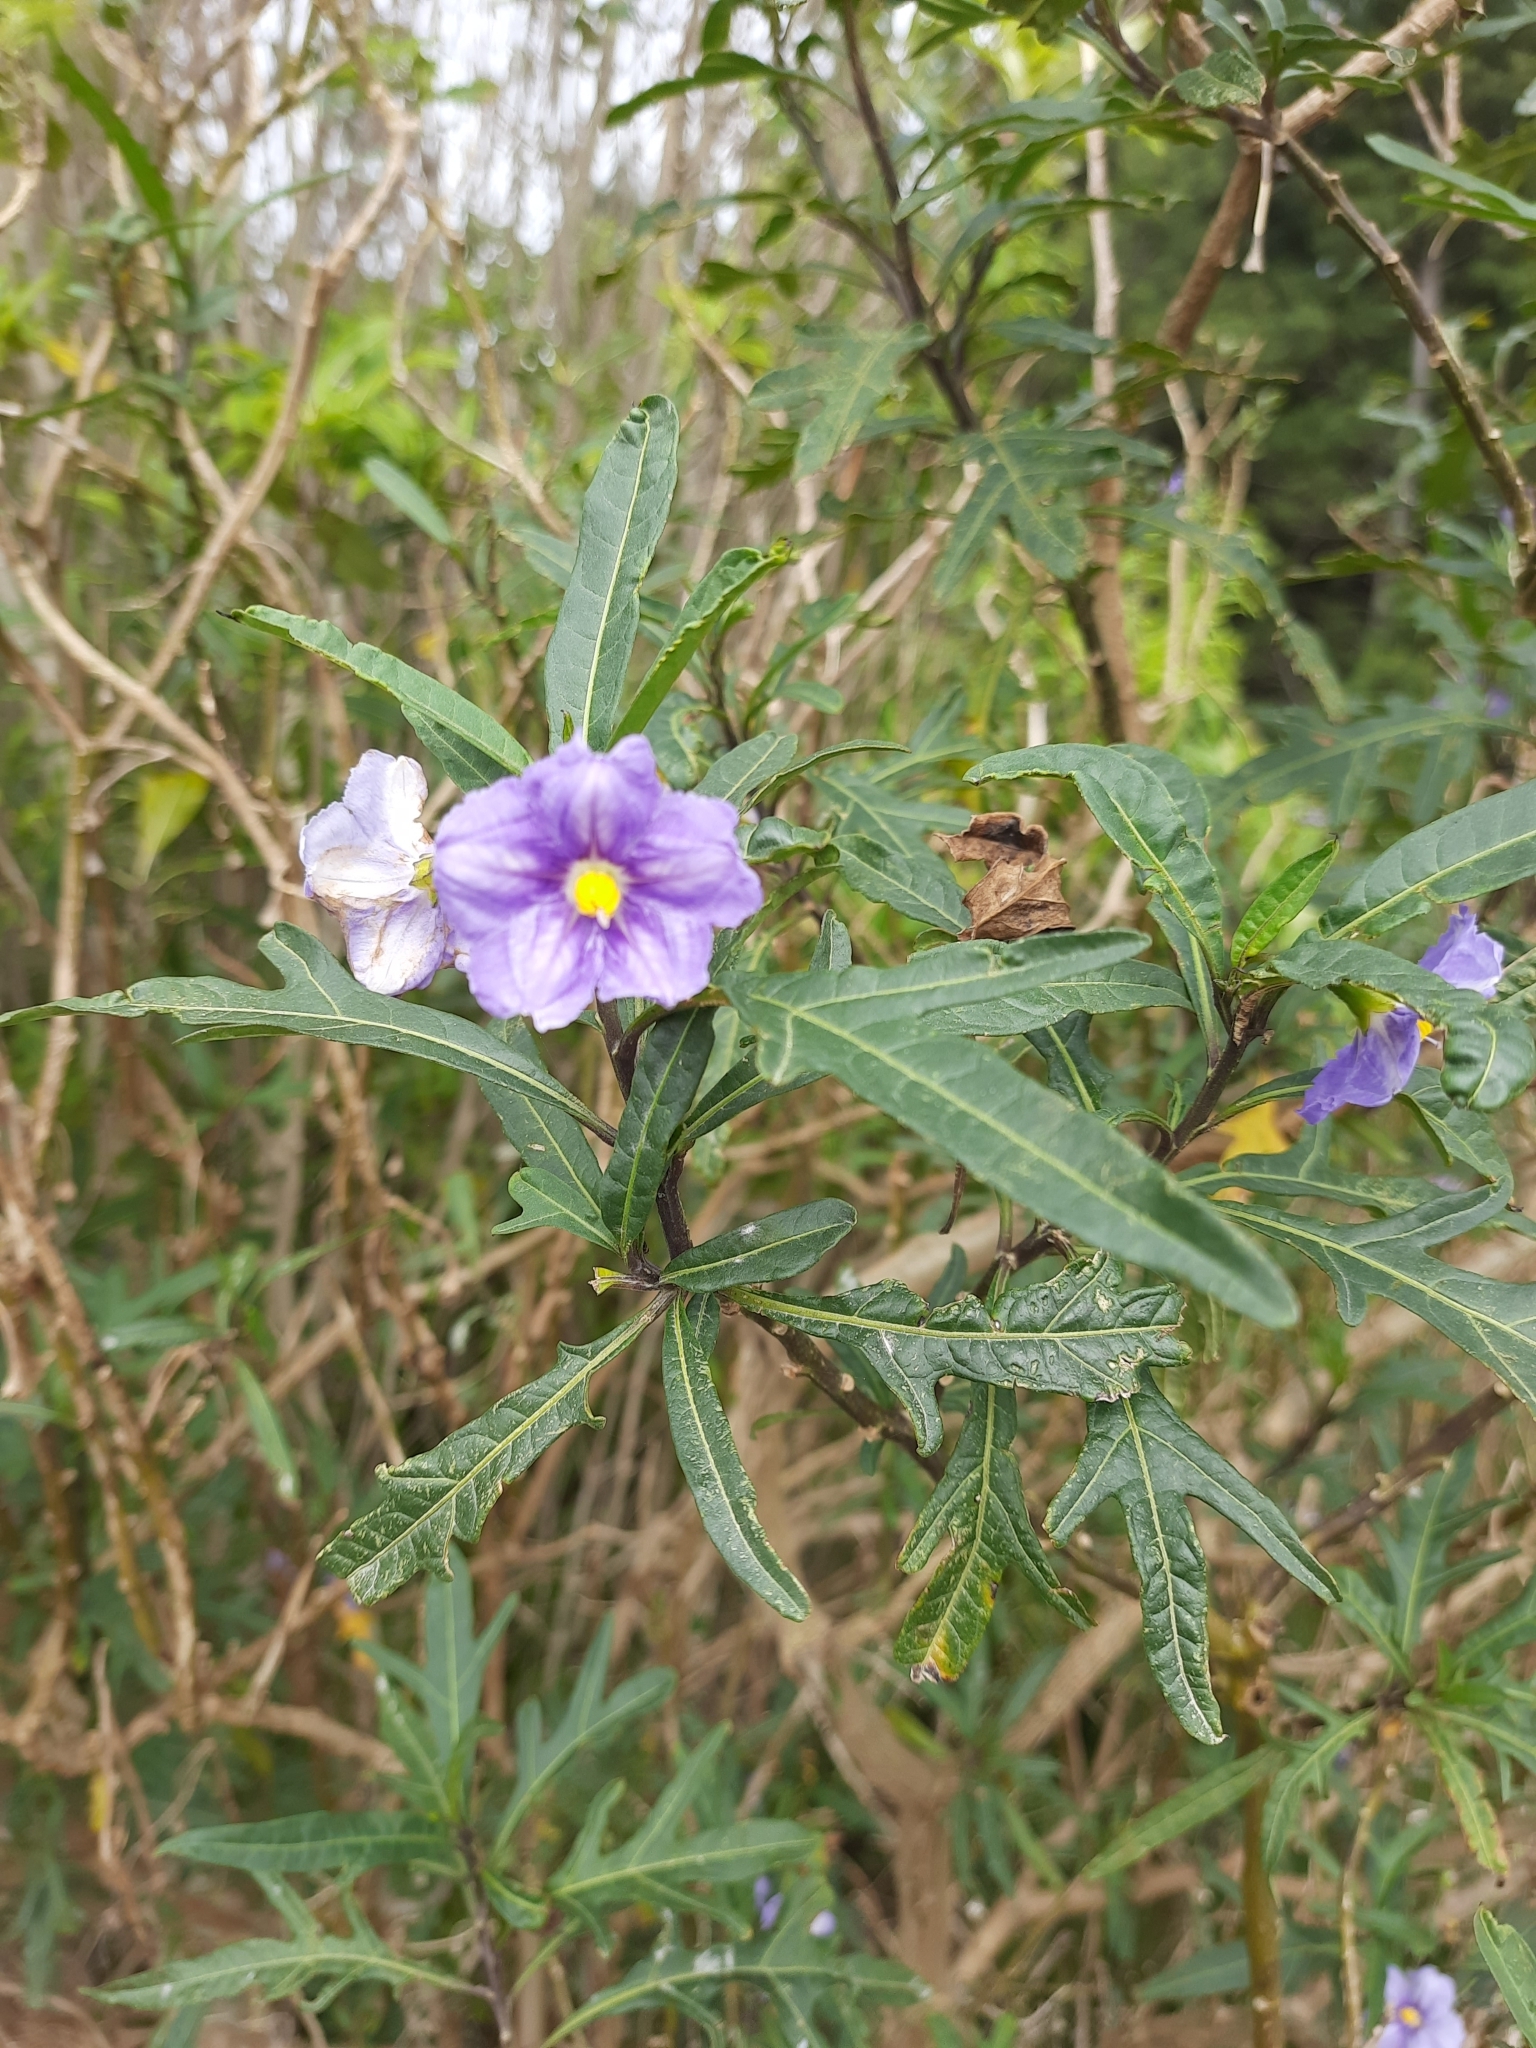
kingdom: Plantae
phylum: Tracheophyta
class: Magnoliopsida
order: Solanales
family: Solanaceae
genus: Solanum
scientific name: Solanum laciniatum
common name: Kangaroo-apple
